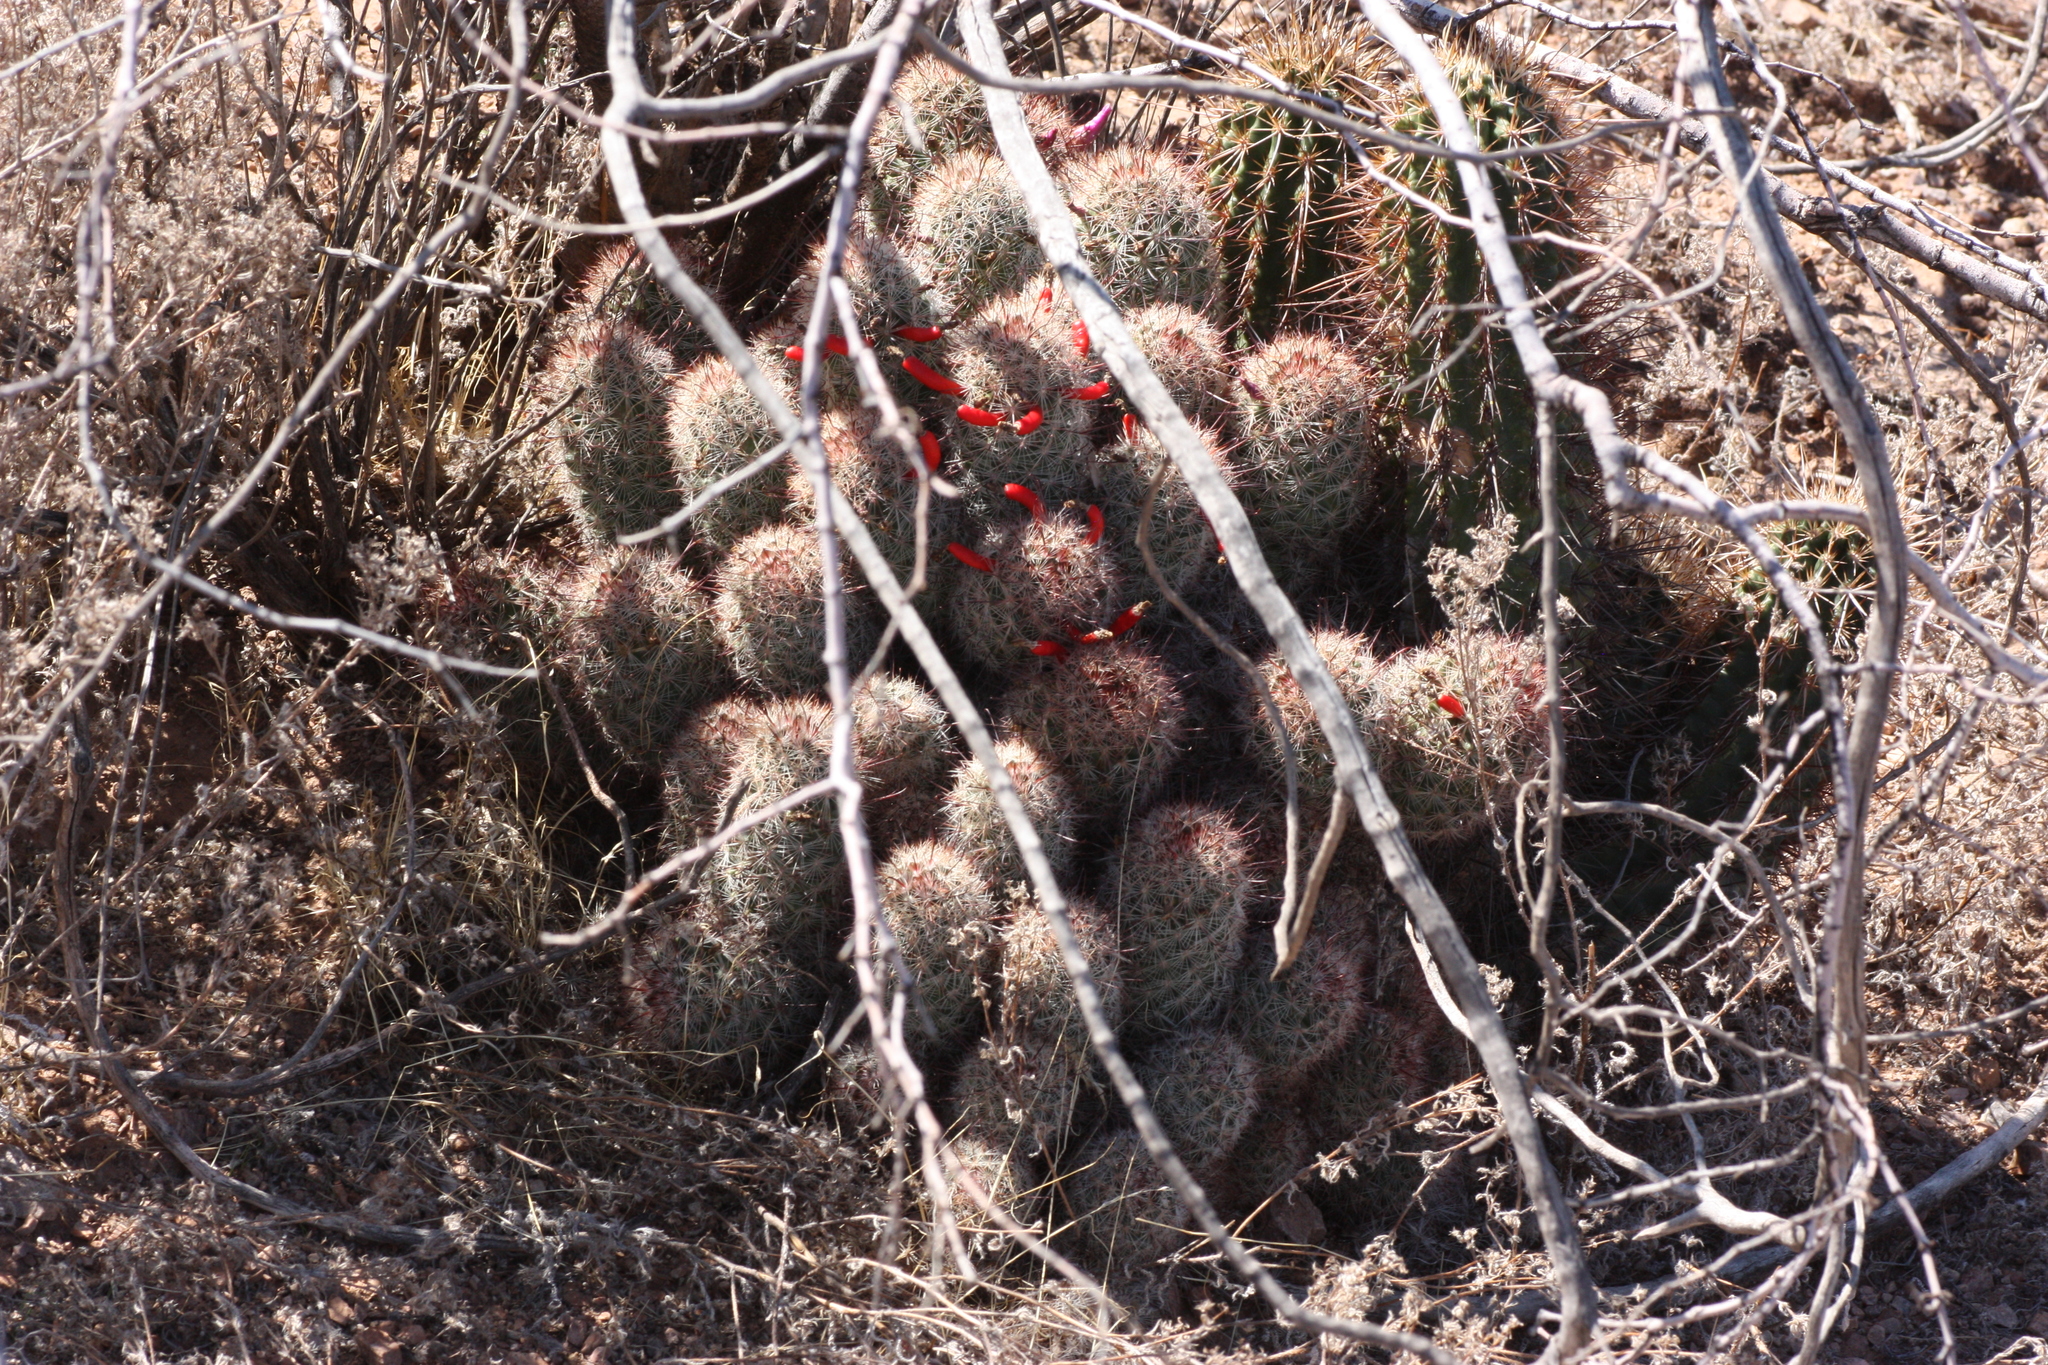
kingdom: Plantae
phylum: Tracheophyta
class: Magnoliopsida
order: Caryophyllales
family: Cactaceae
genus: Cochemiea
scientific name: Cochemiea grahamii
